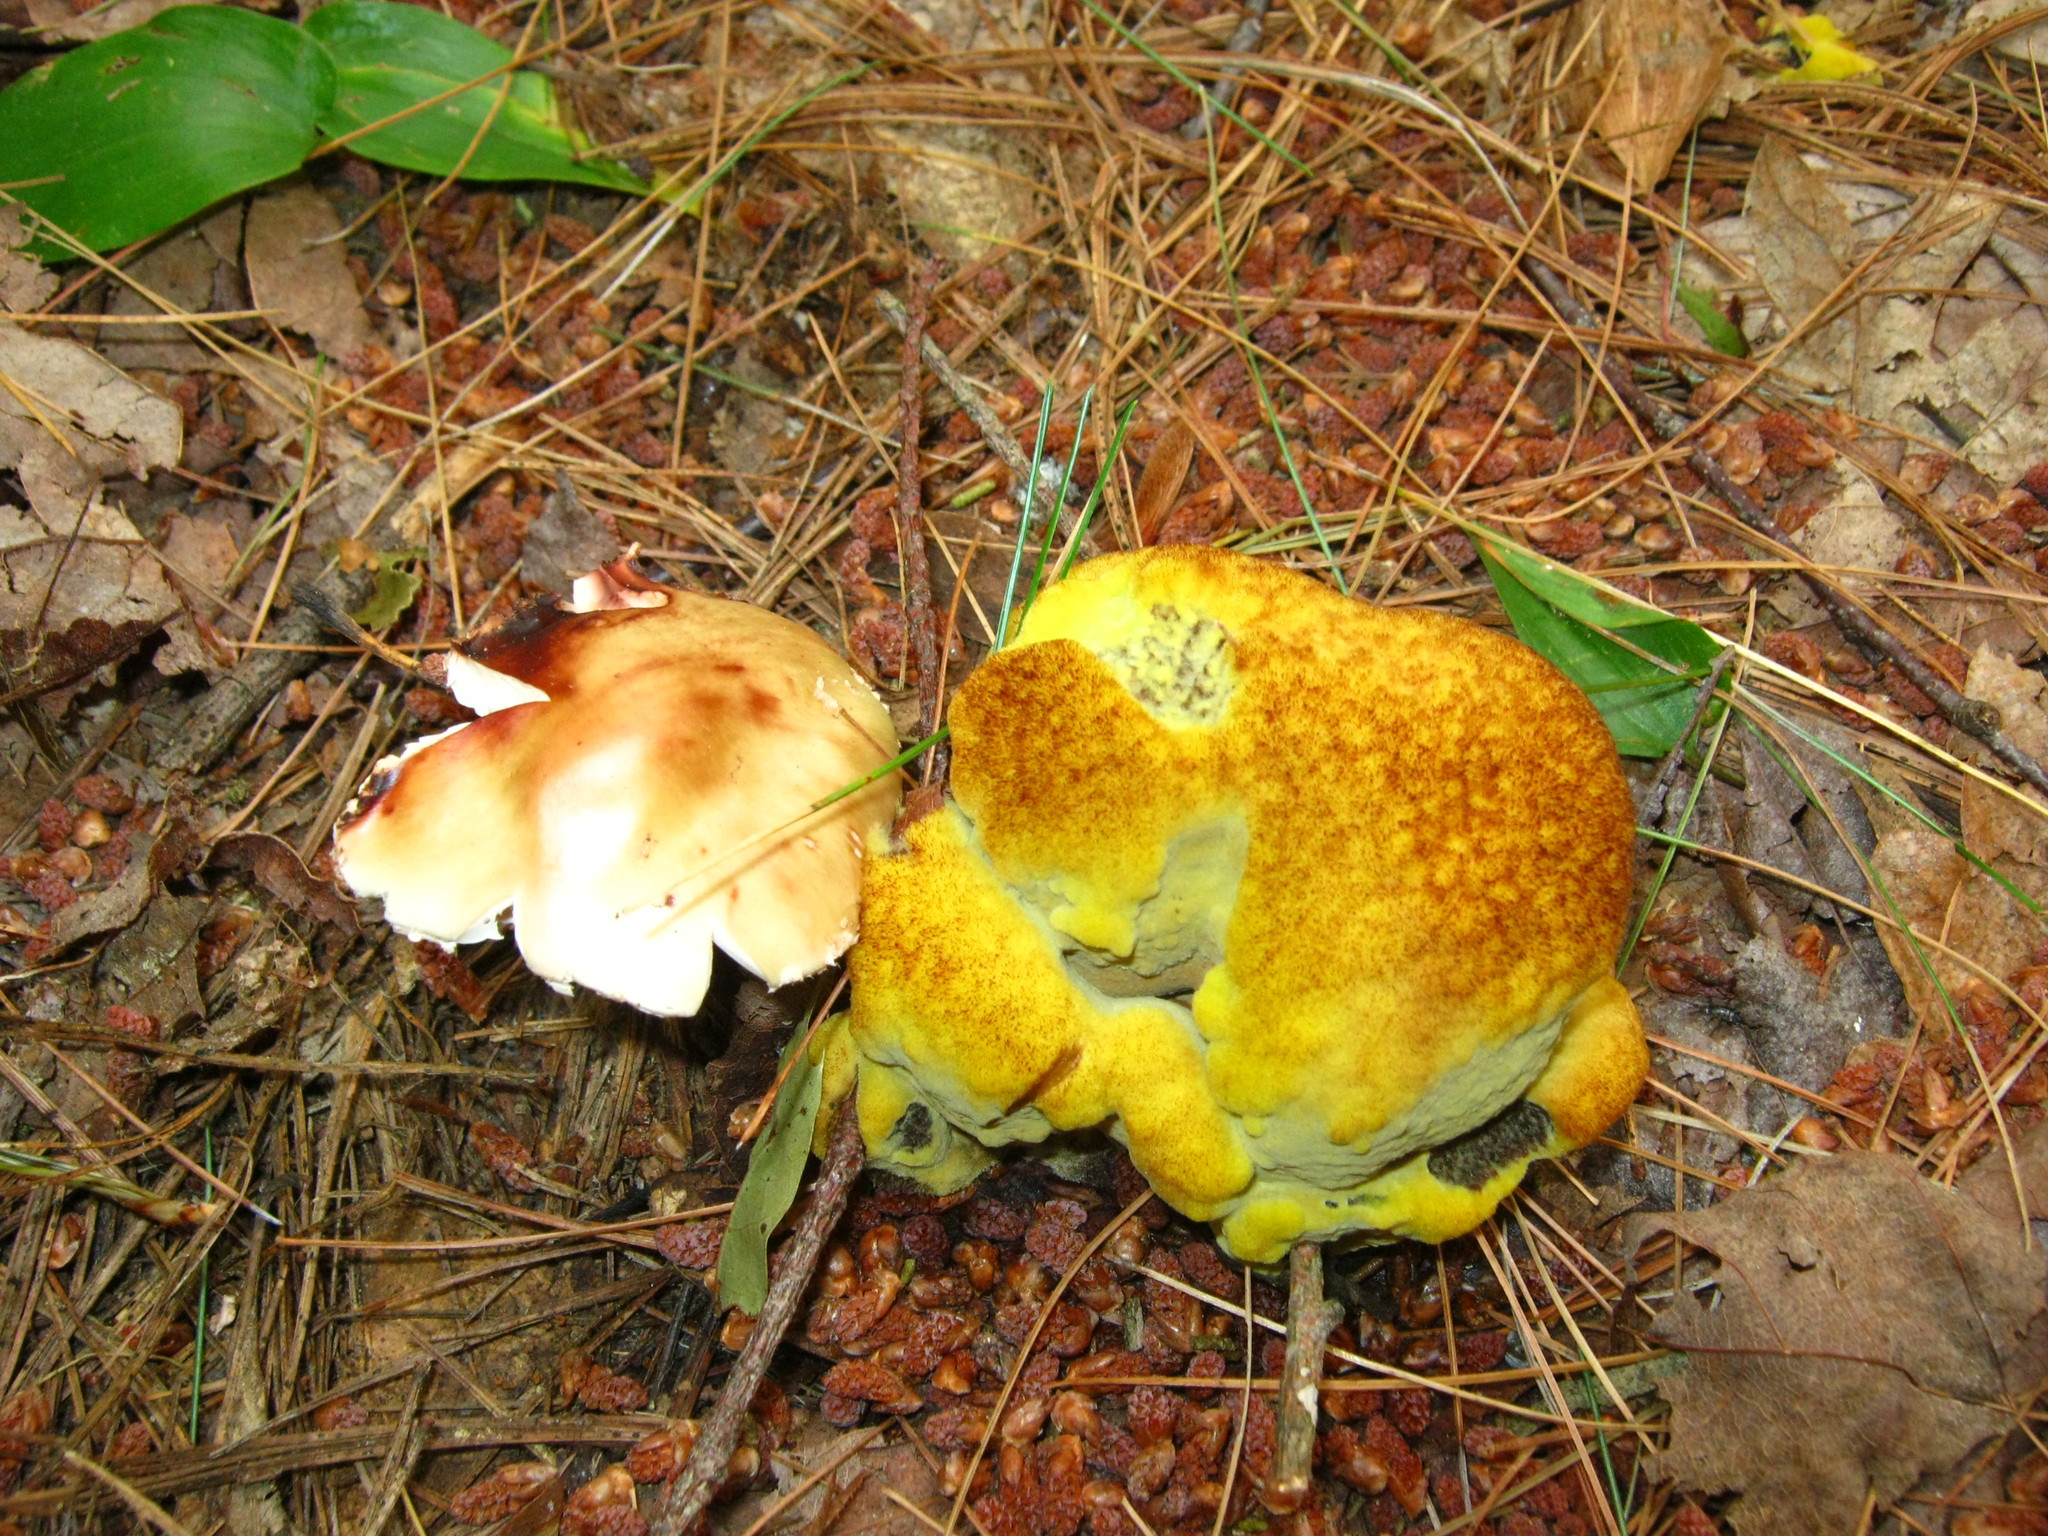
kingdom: Fungi
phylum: Basidiomycota
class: Agaricomycetes
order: Polyporales
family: Laetiporaceae
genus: Phaeolus
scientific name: Phaeolus schweinitzii
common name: Dyer's mazegill
